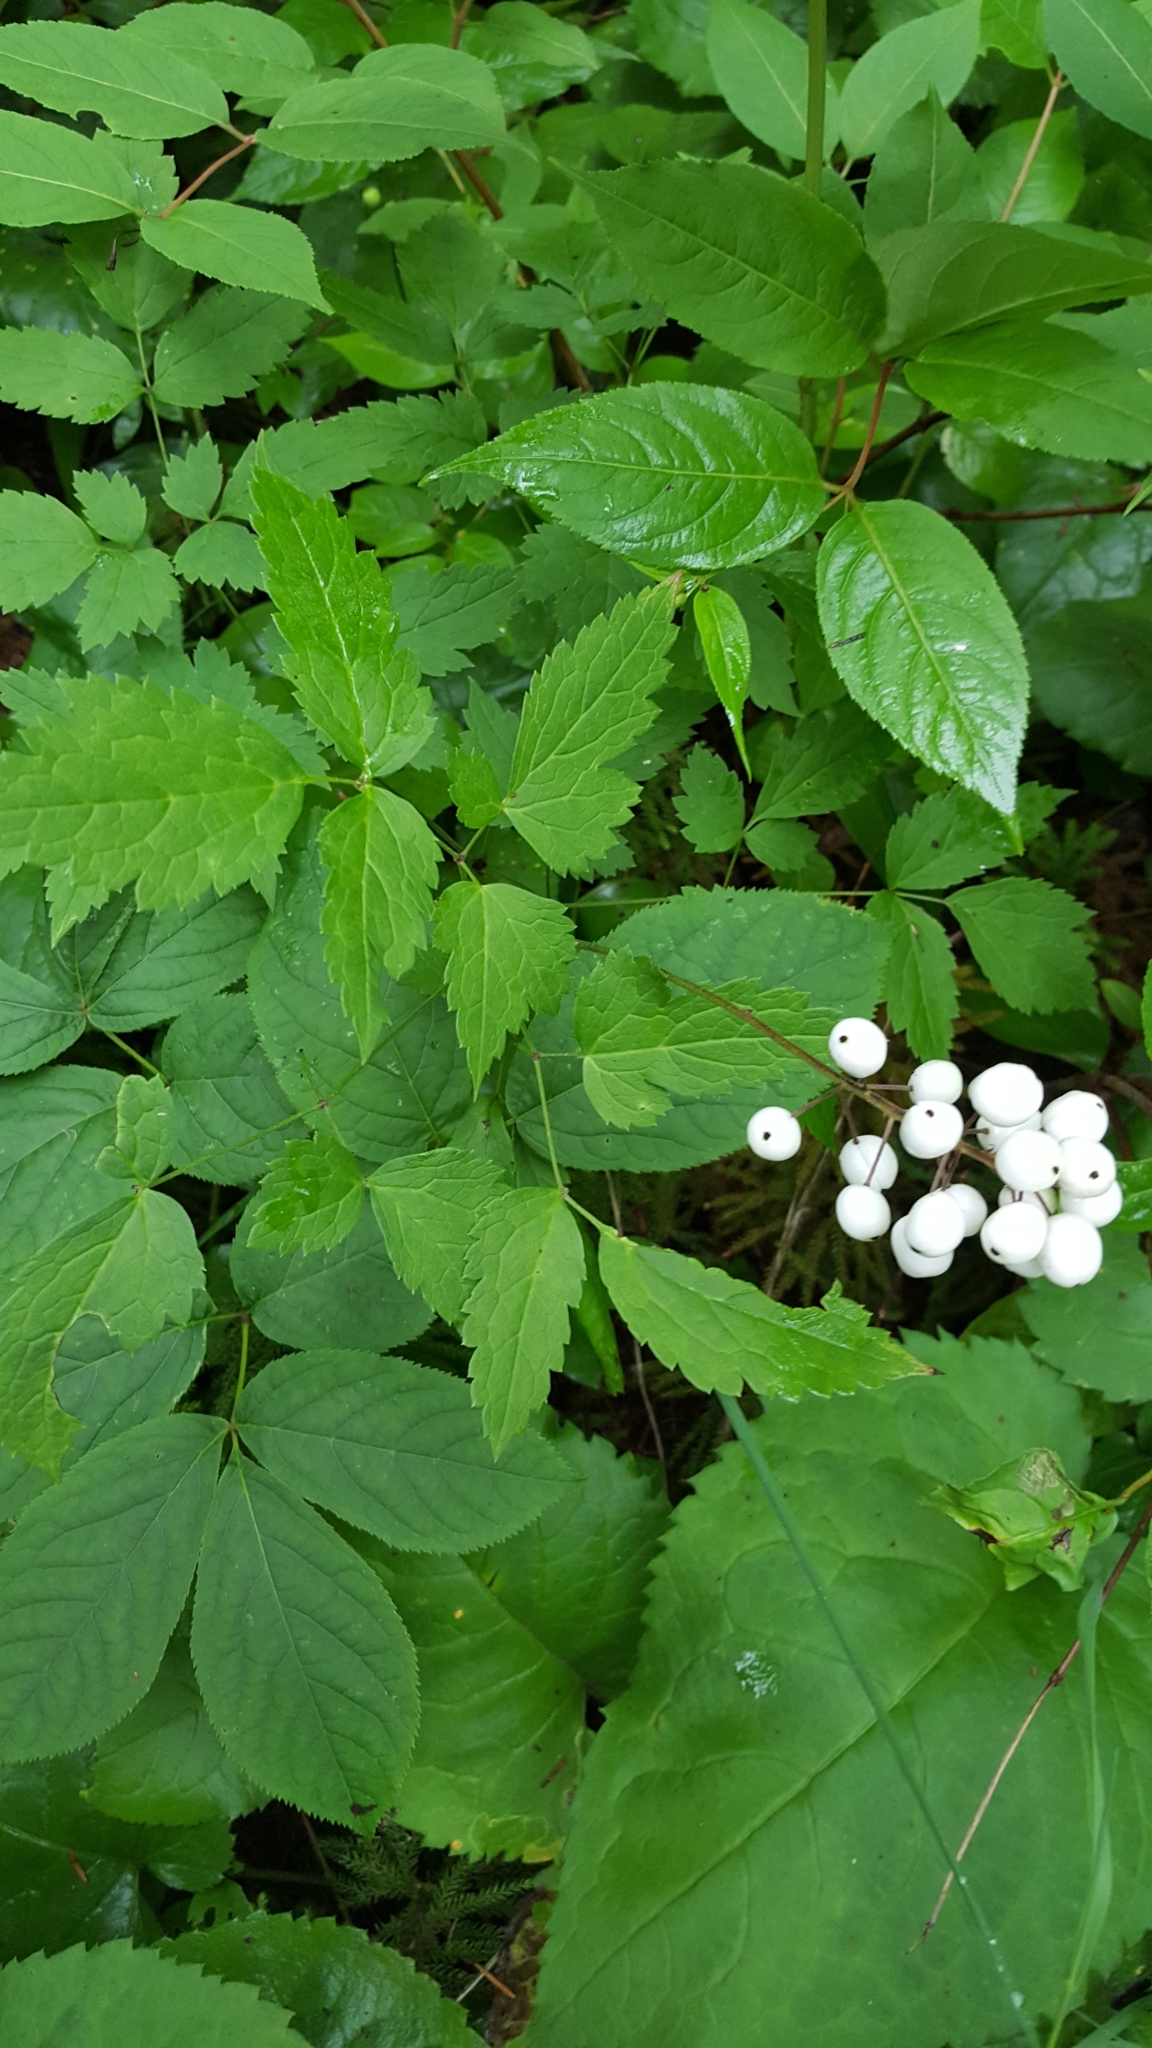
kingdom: Plantae
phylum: Tracheophyta
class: Magnoliopsida
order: Ranunculales
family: Ranunculaceae
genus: Actaea
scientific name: Actaea rubra
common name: Red baneberry
